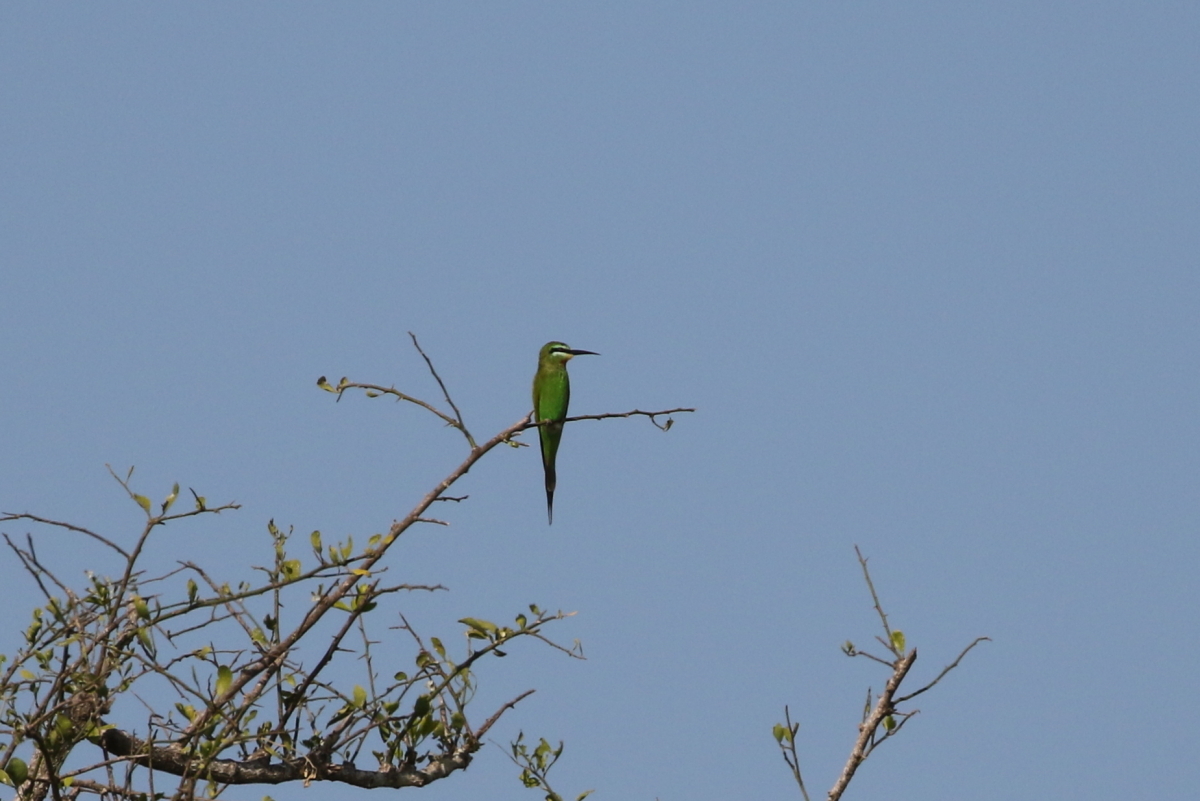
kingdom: Animalia
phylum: Chordata
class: Aves
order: Coraciiformes
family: Meropidae
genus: Merops
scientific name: Merops persicus
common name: Blue-cheeked bee-eater
